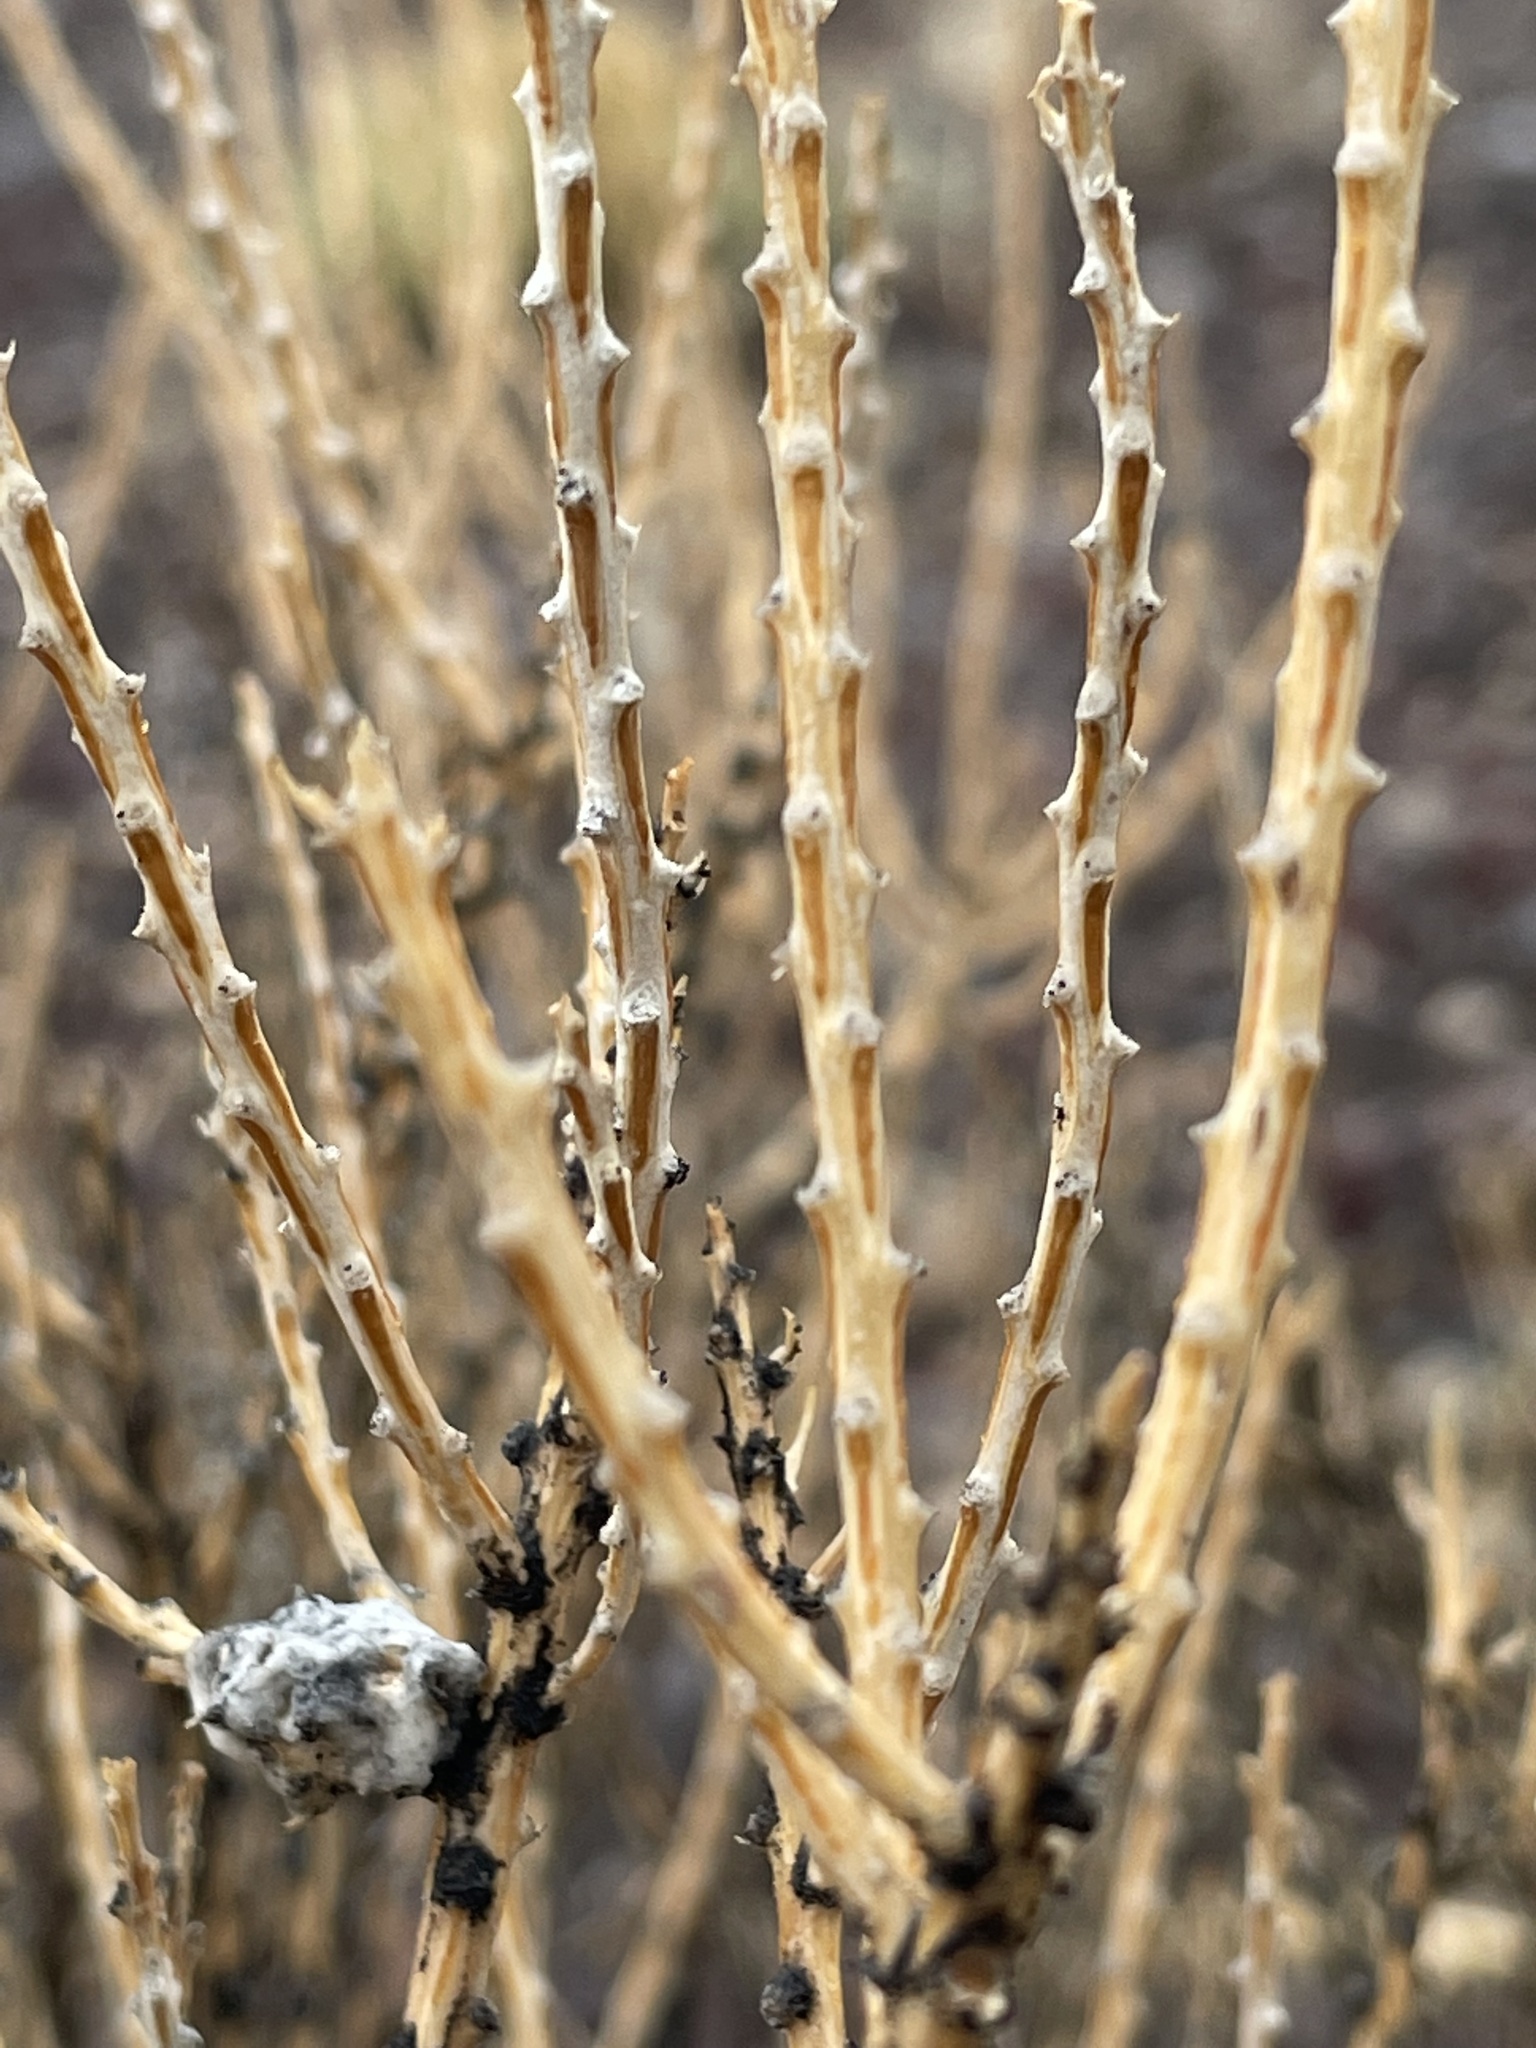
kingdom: Plantae
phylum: Tracheophyta
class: Magnoliopsida
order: Asterales
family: Asteraceae
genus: Tetradymia
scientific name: Tetradymia glabrata
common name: Smooth tetradymia
